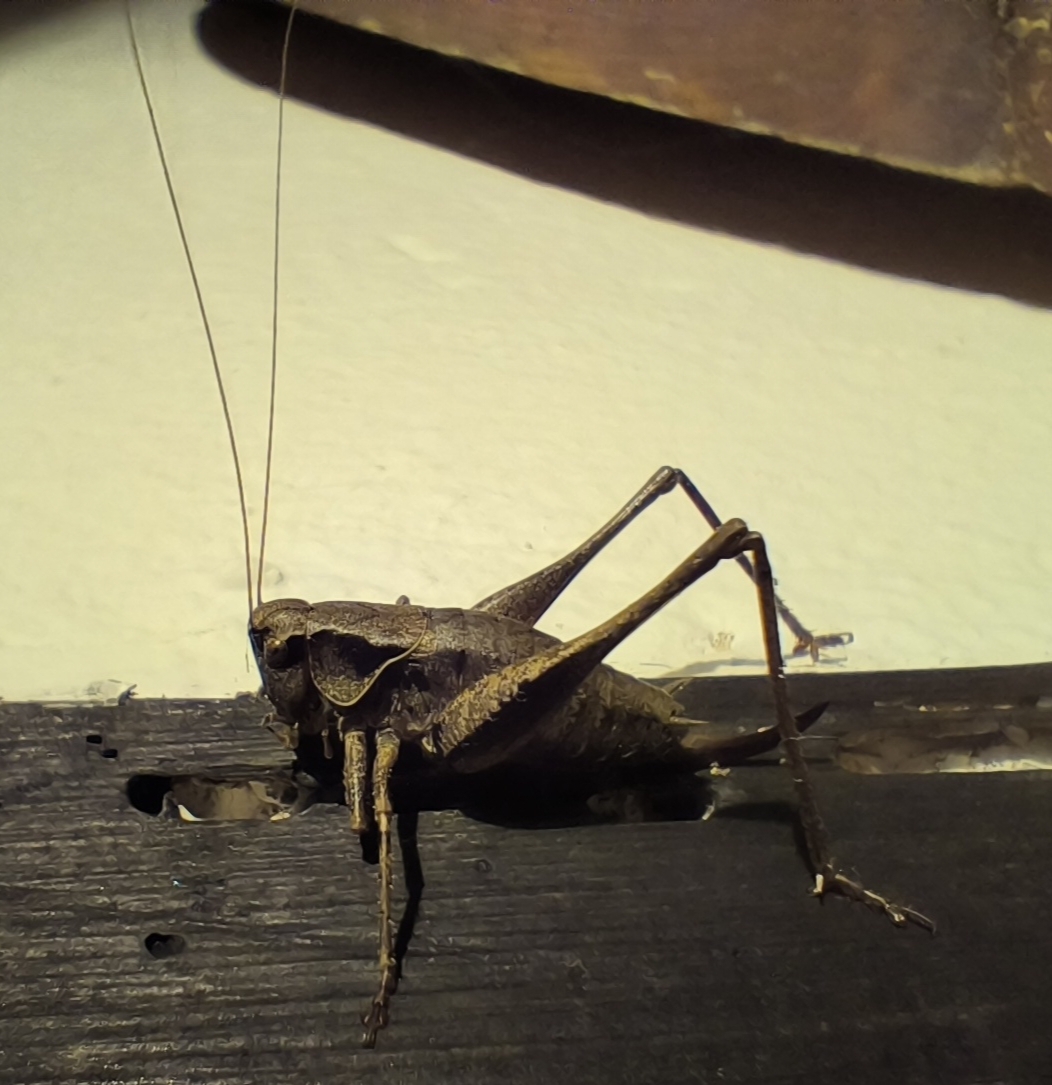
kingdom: Animalia
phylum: Arthropoda
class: Insecta
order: Orthoptera
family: Tettigoniidae
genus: Pholidoptera
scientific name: Pholidoptera griseoaptera
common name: Dark bush-cricket
